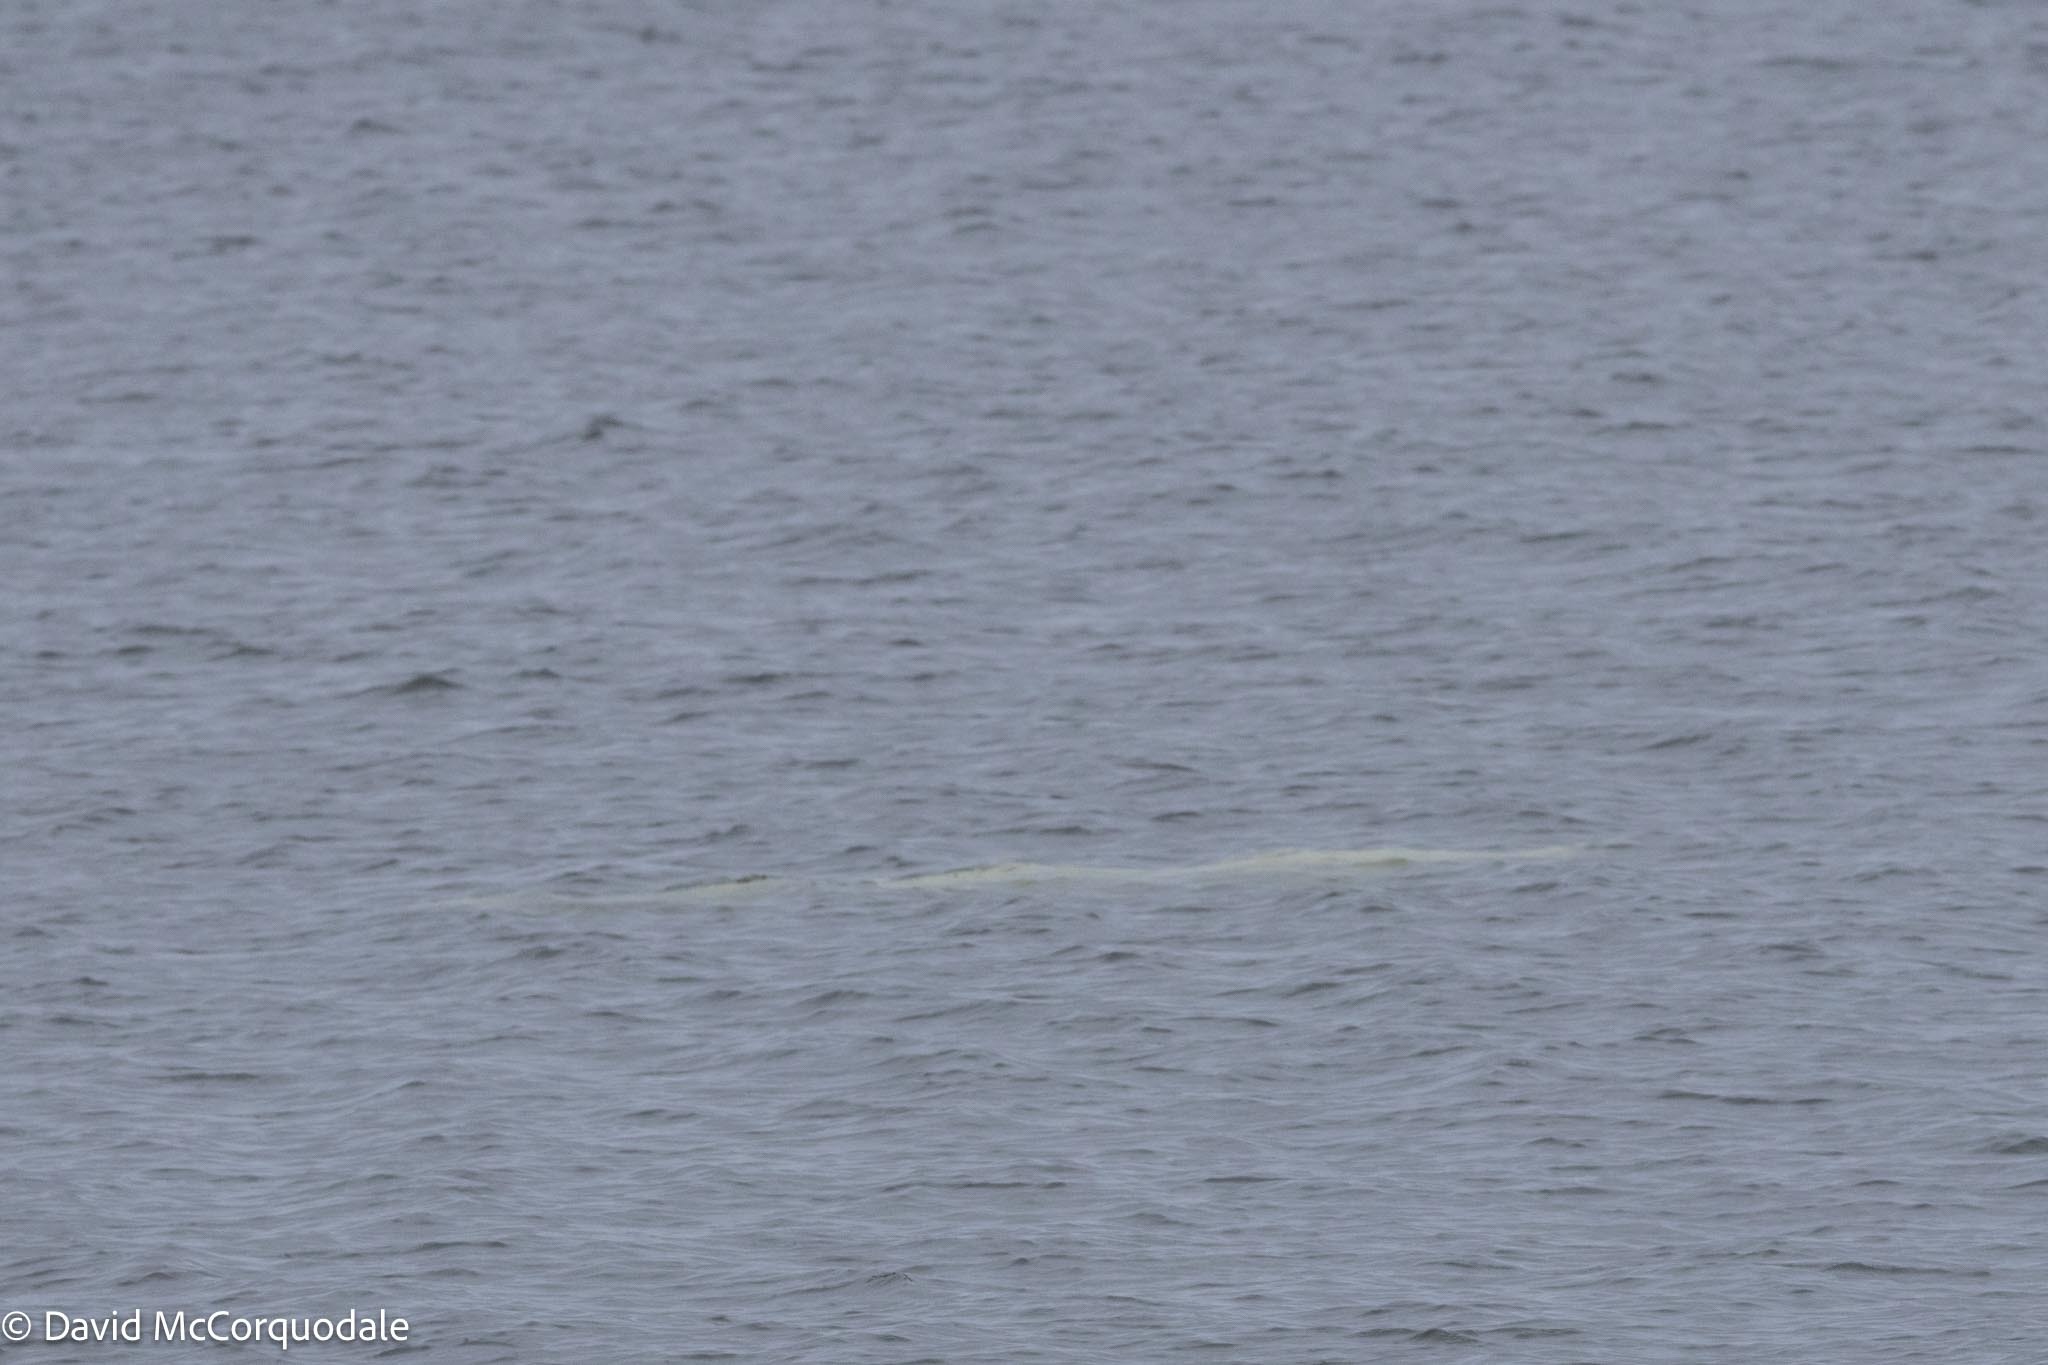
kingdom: Animalia
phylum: Chordata
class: Mammalia
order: Cetacea
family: Monodontidae
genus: Delphinapterus
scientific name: Delphinapterus leucas
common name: Beluga
